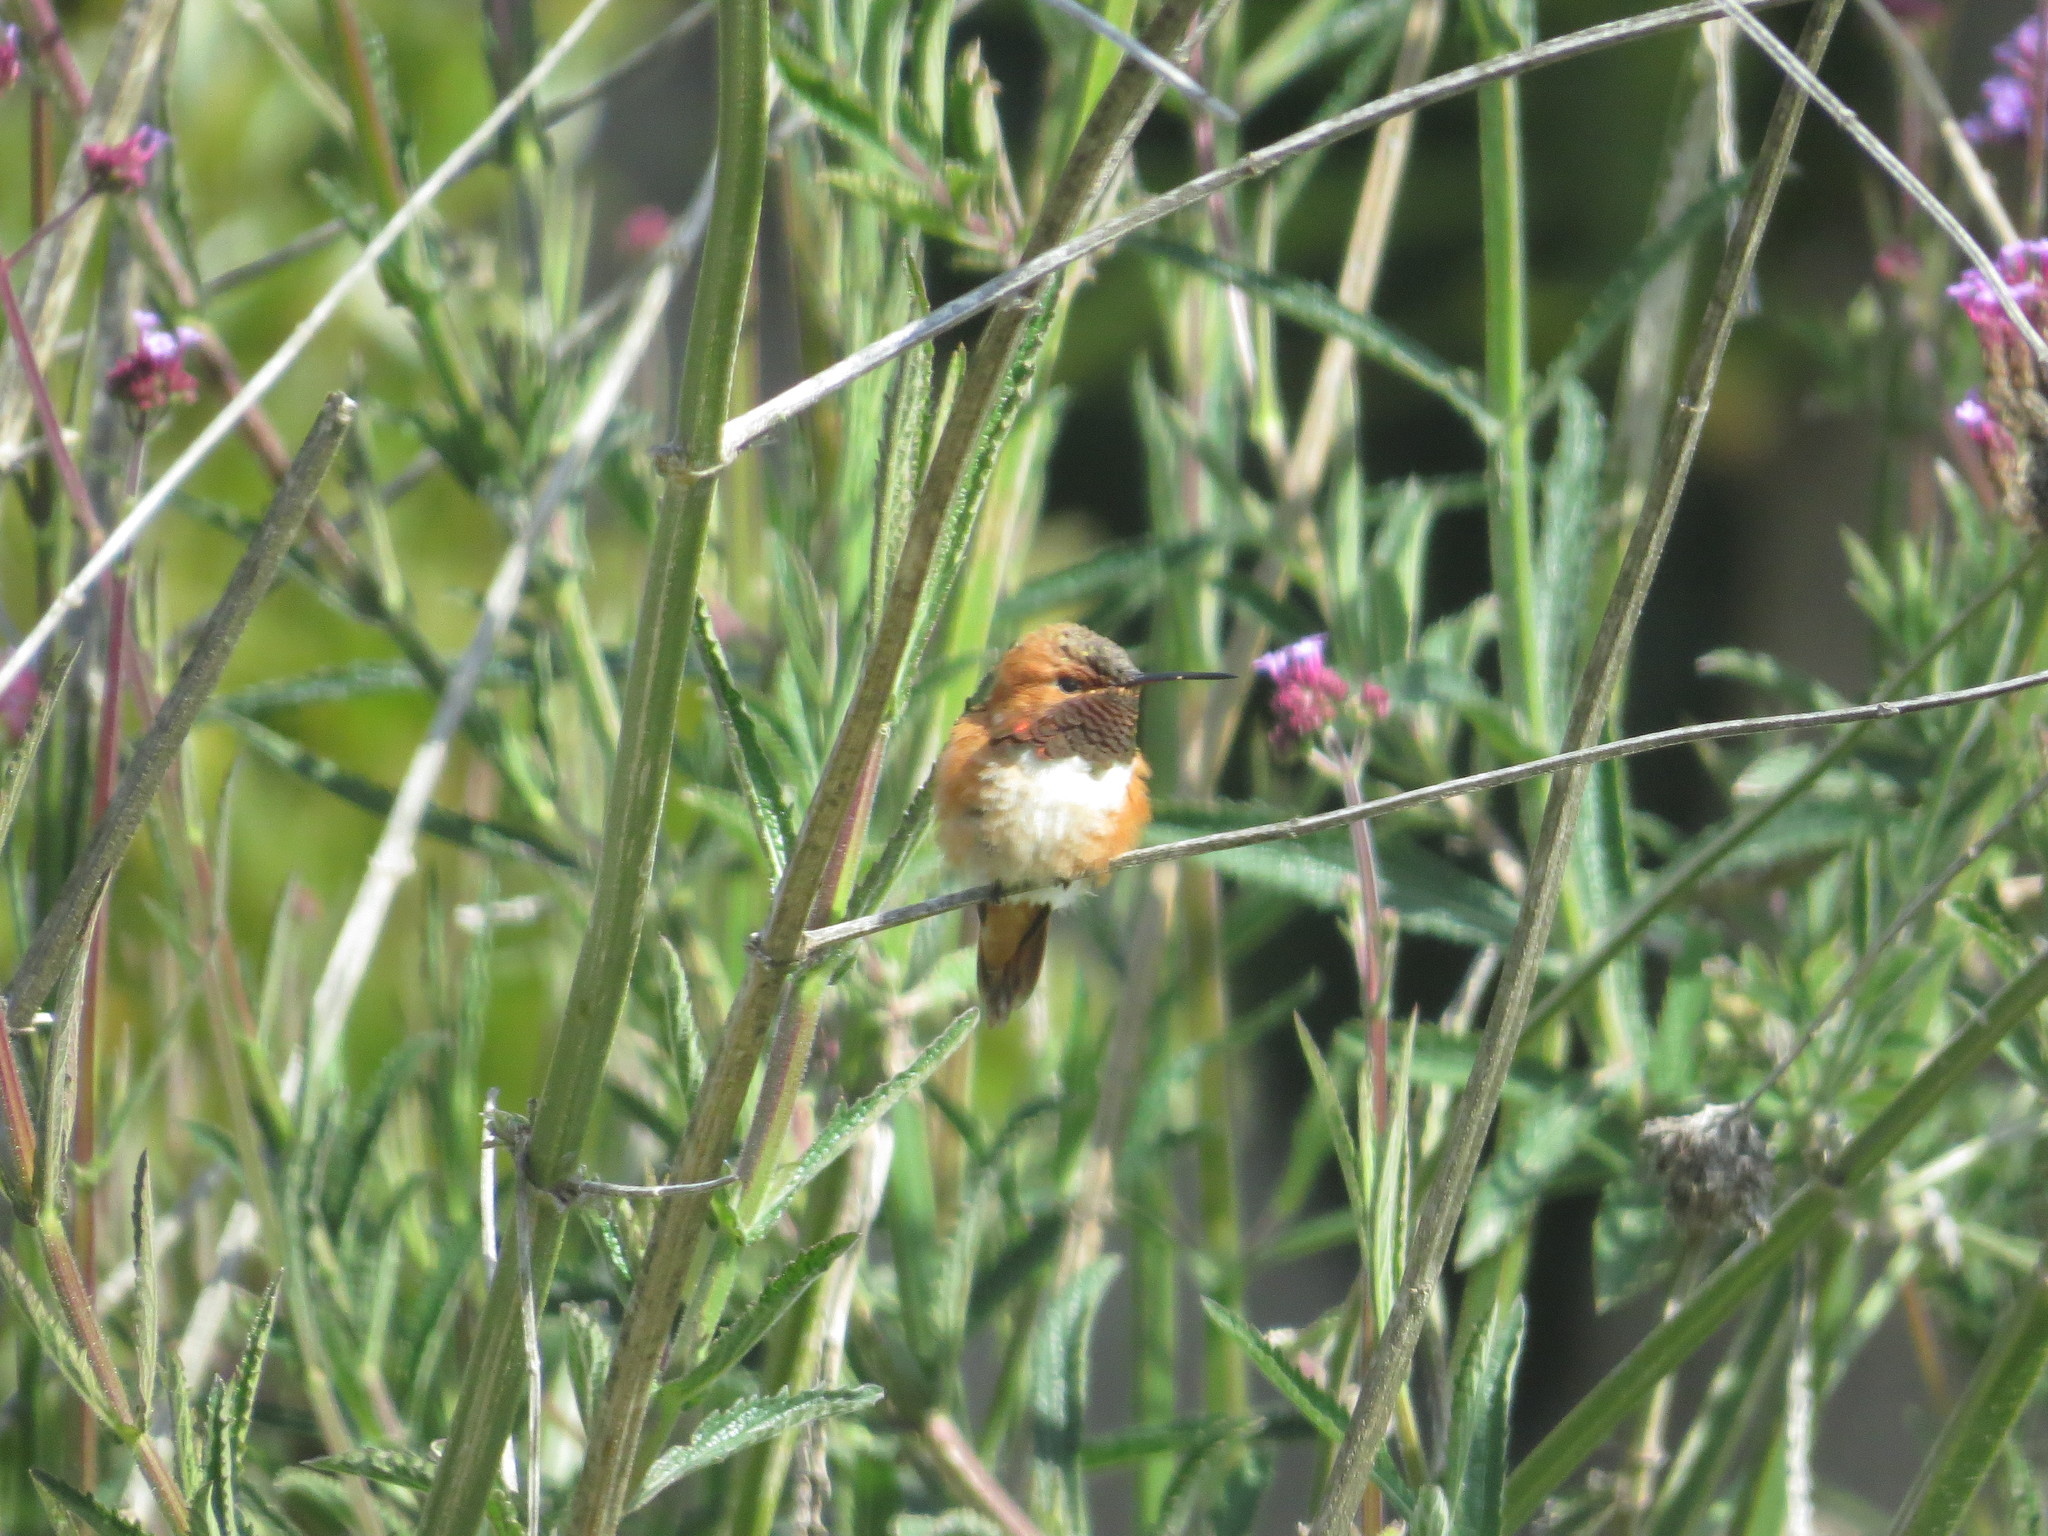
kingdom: Animalia
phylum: Chordata
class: Aves
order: Apodiformes
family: Trochilidae
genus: Selasphorus
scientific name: Selasphorus rufus
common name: Rufous hummingbird
